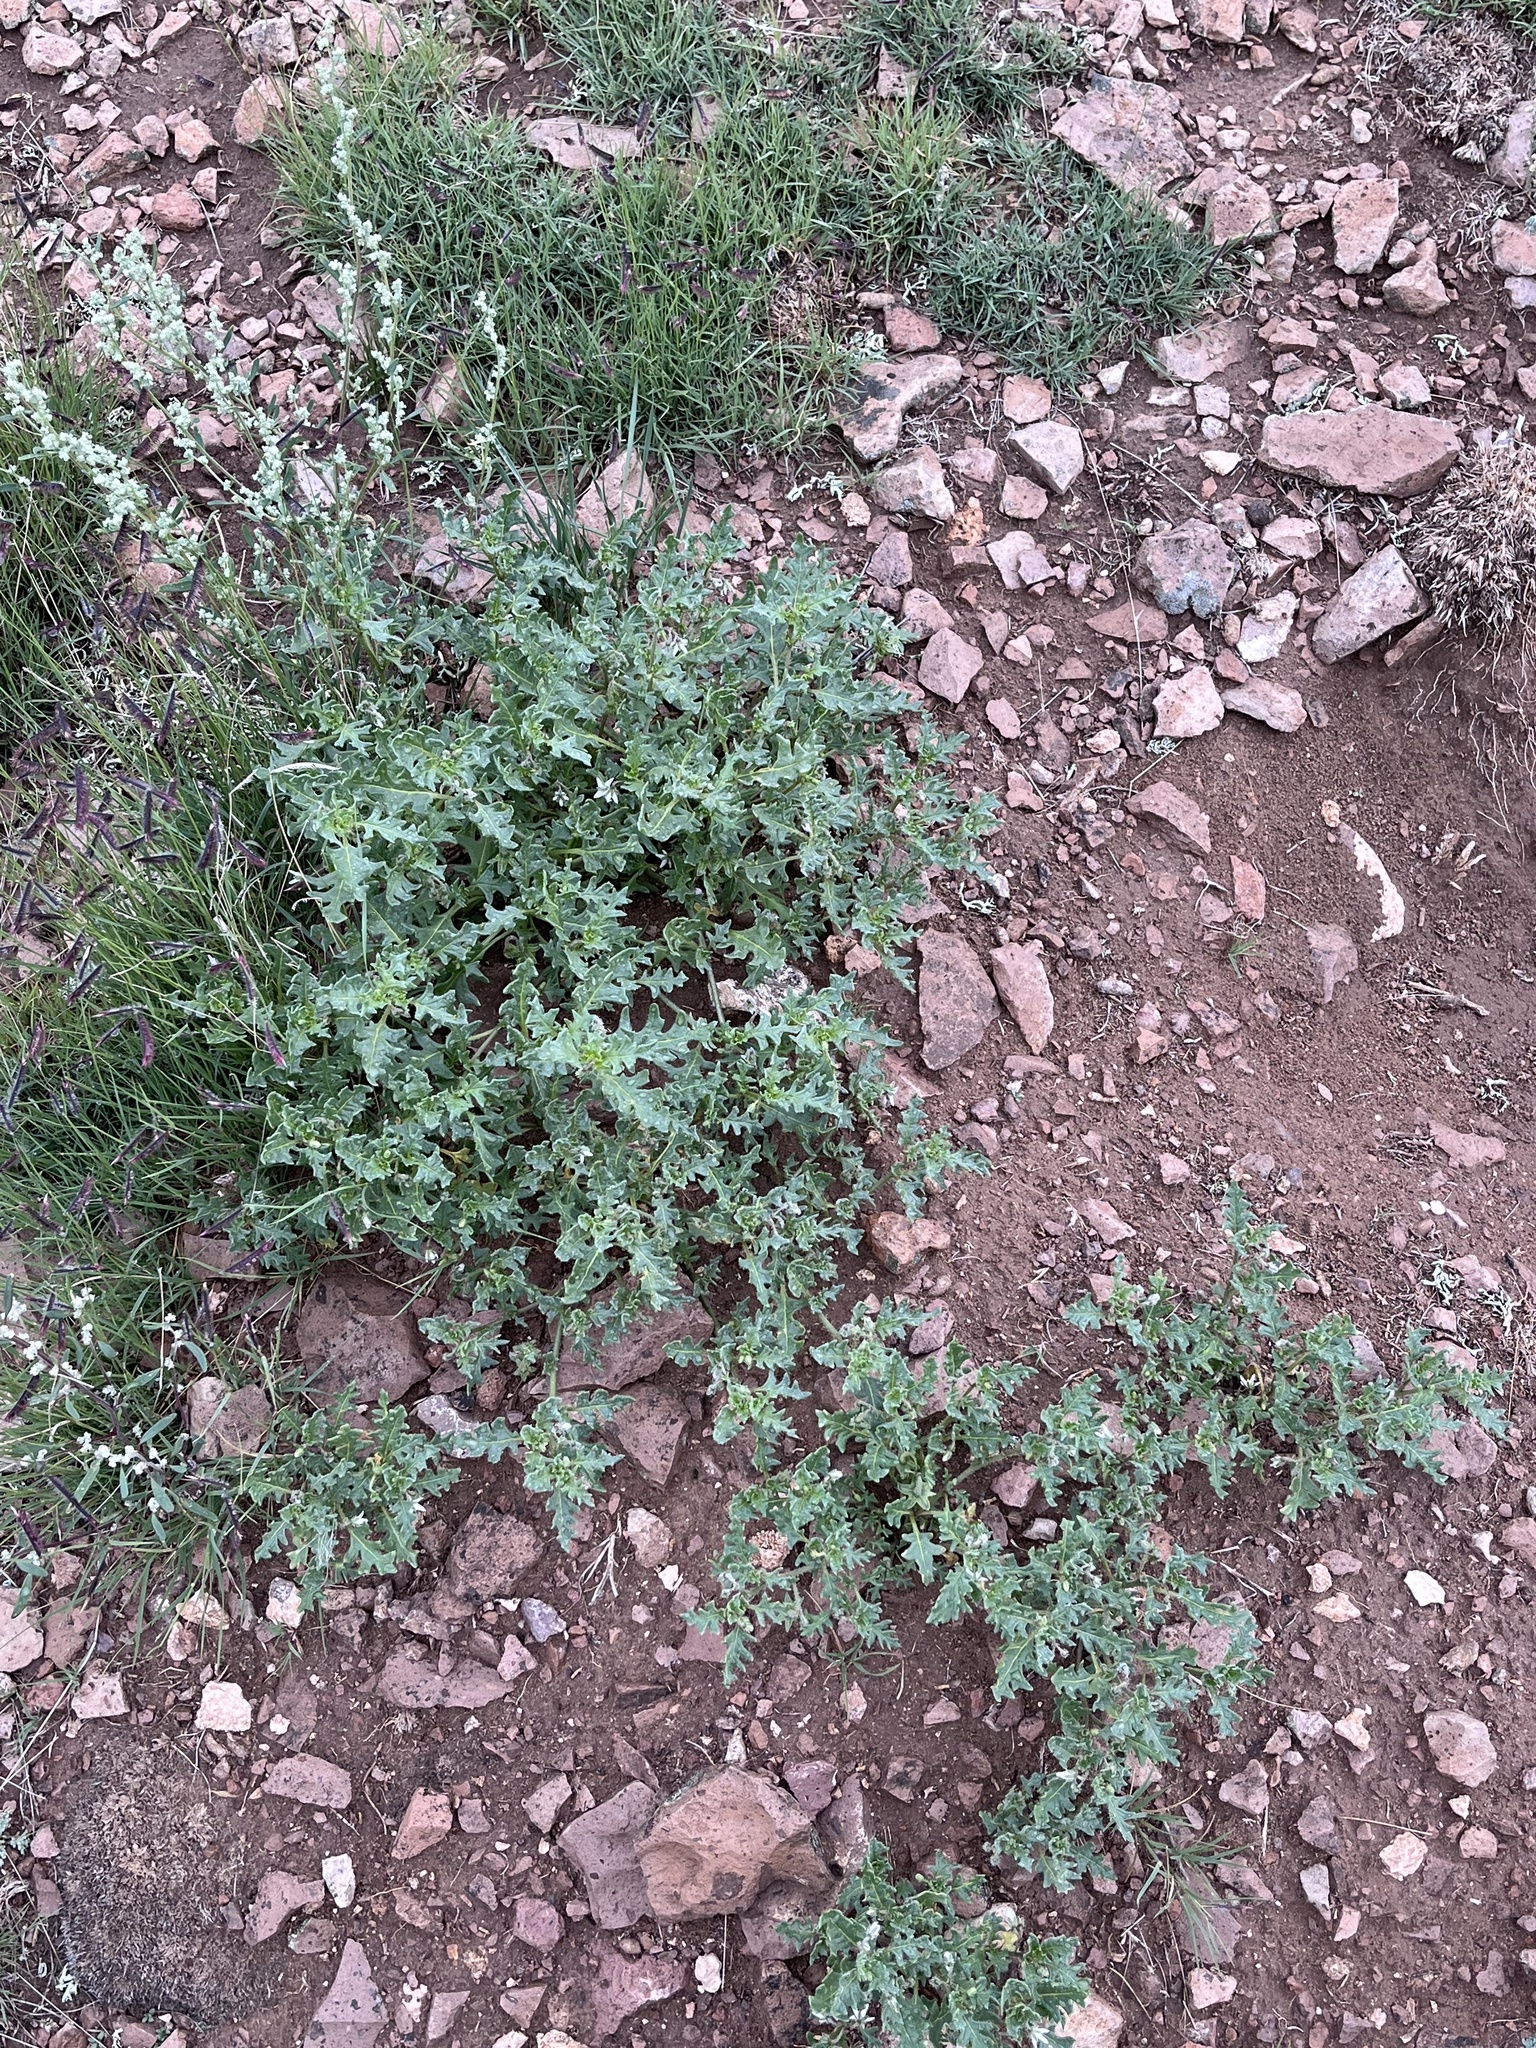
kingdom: Plantae
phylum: Tracheophyta
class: Magnoliopsida
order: Solanales
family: Solanaceae
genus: Solanum
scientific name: Solanum triflorum
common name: Small nightshade
